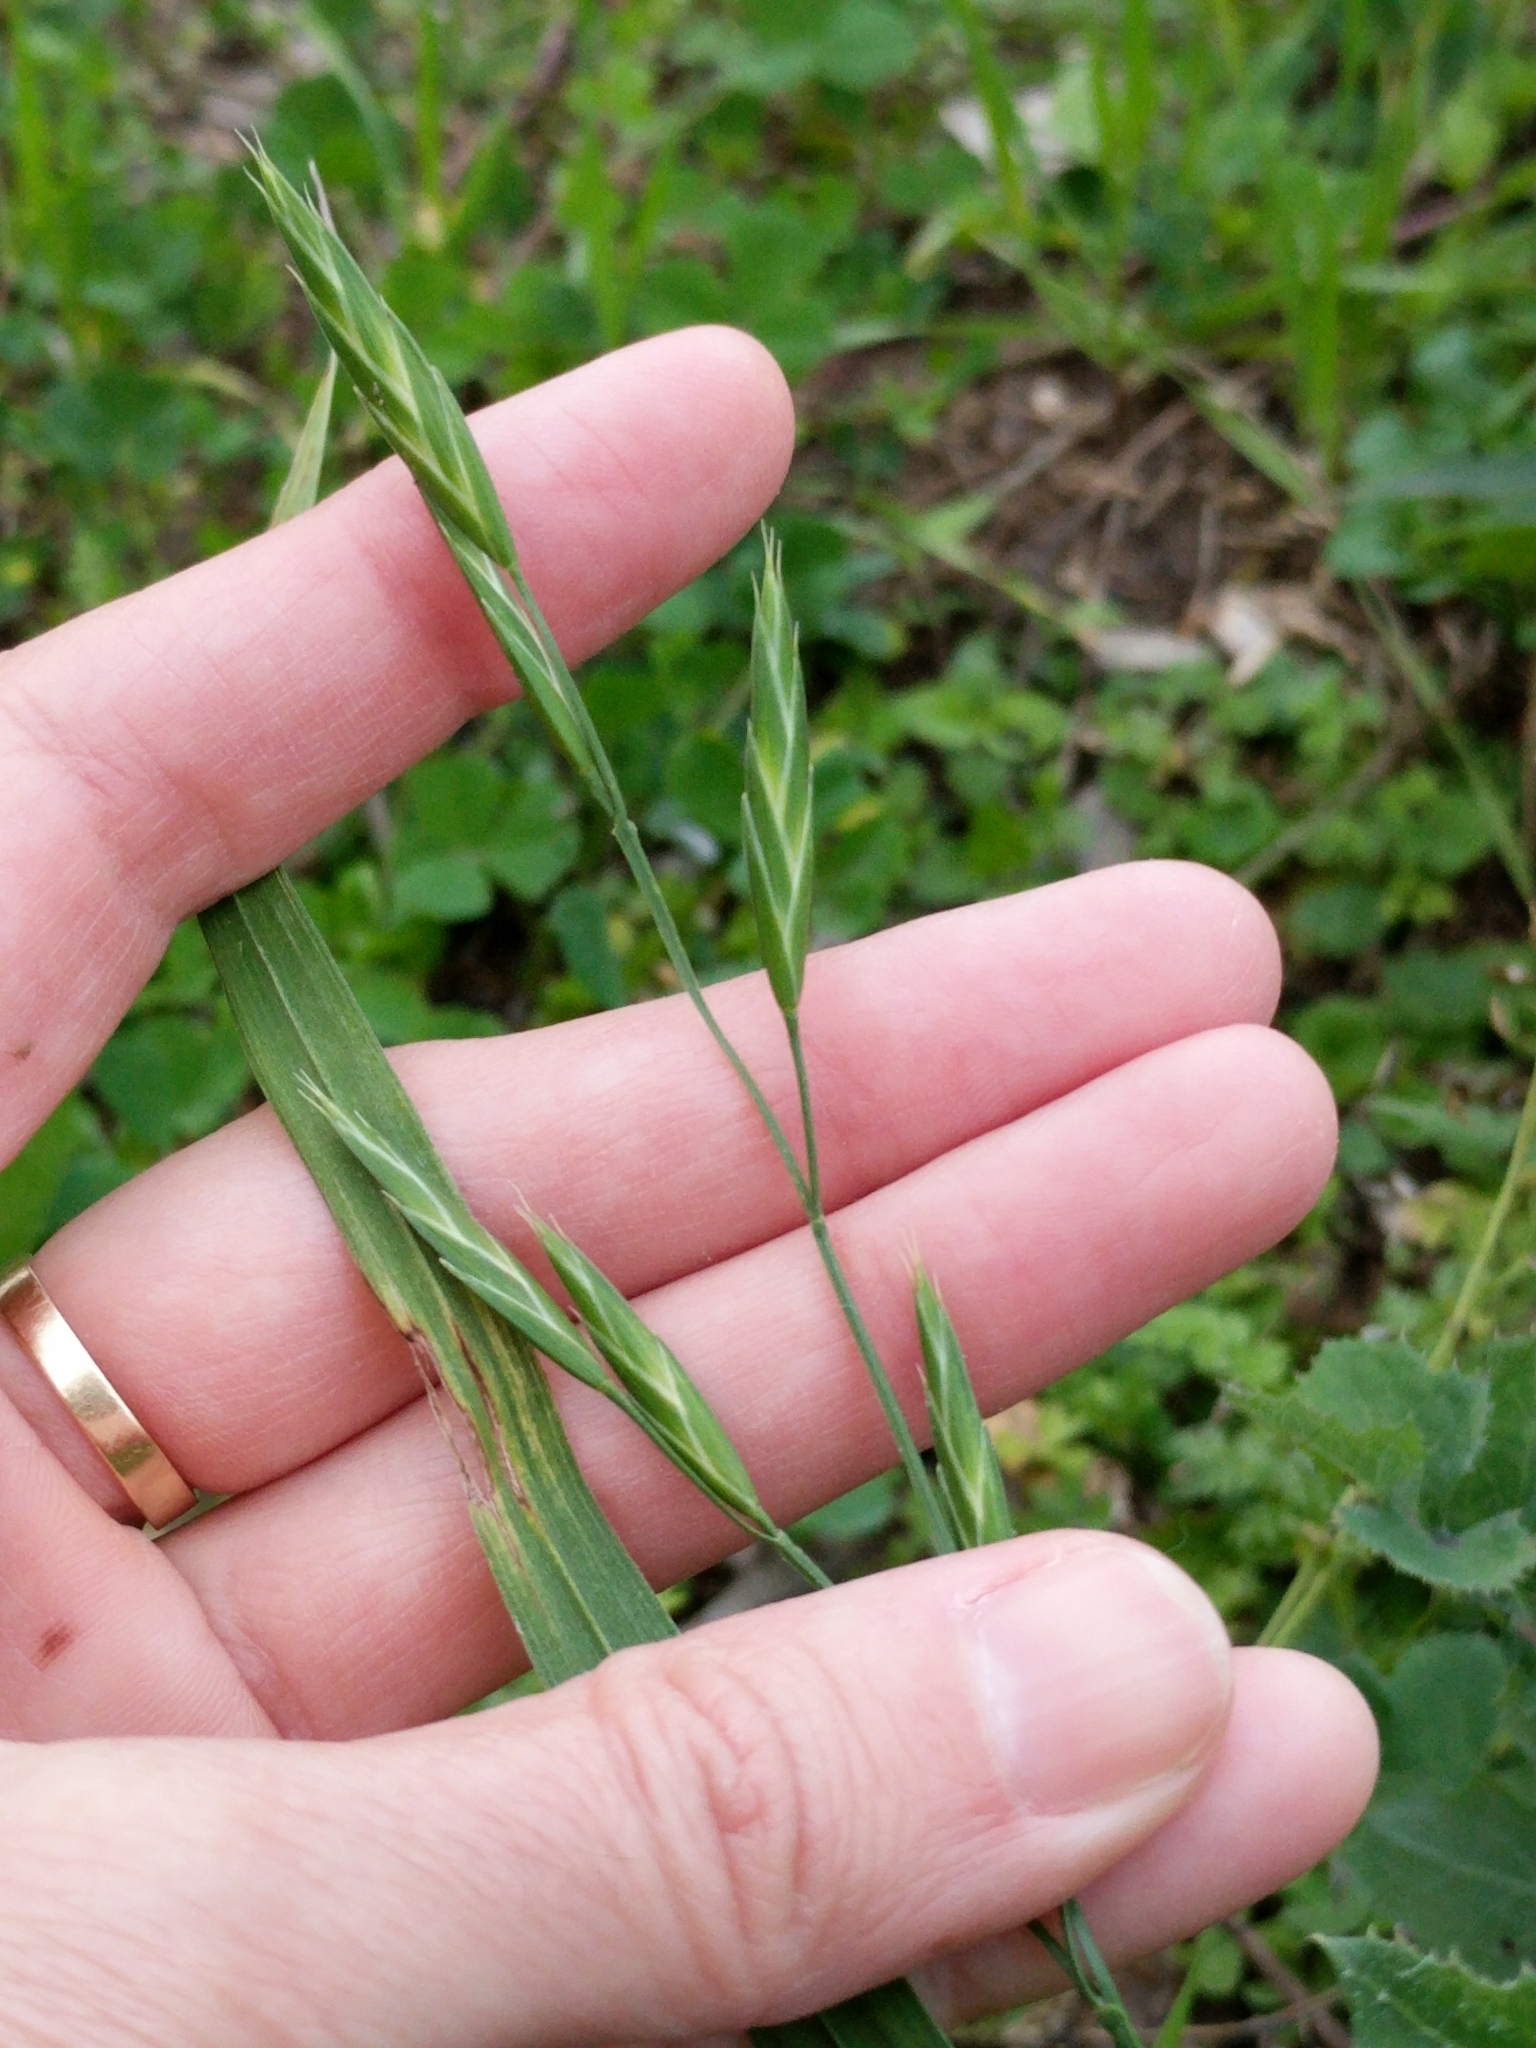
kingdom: Plantae
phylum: Tracheophyta
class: Liliopsida
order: Poales
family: Poaceae
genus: Bromus
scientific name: Bromus catharticus
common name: Rescuegrass
